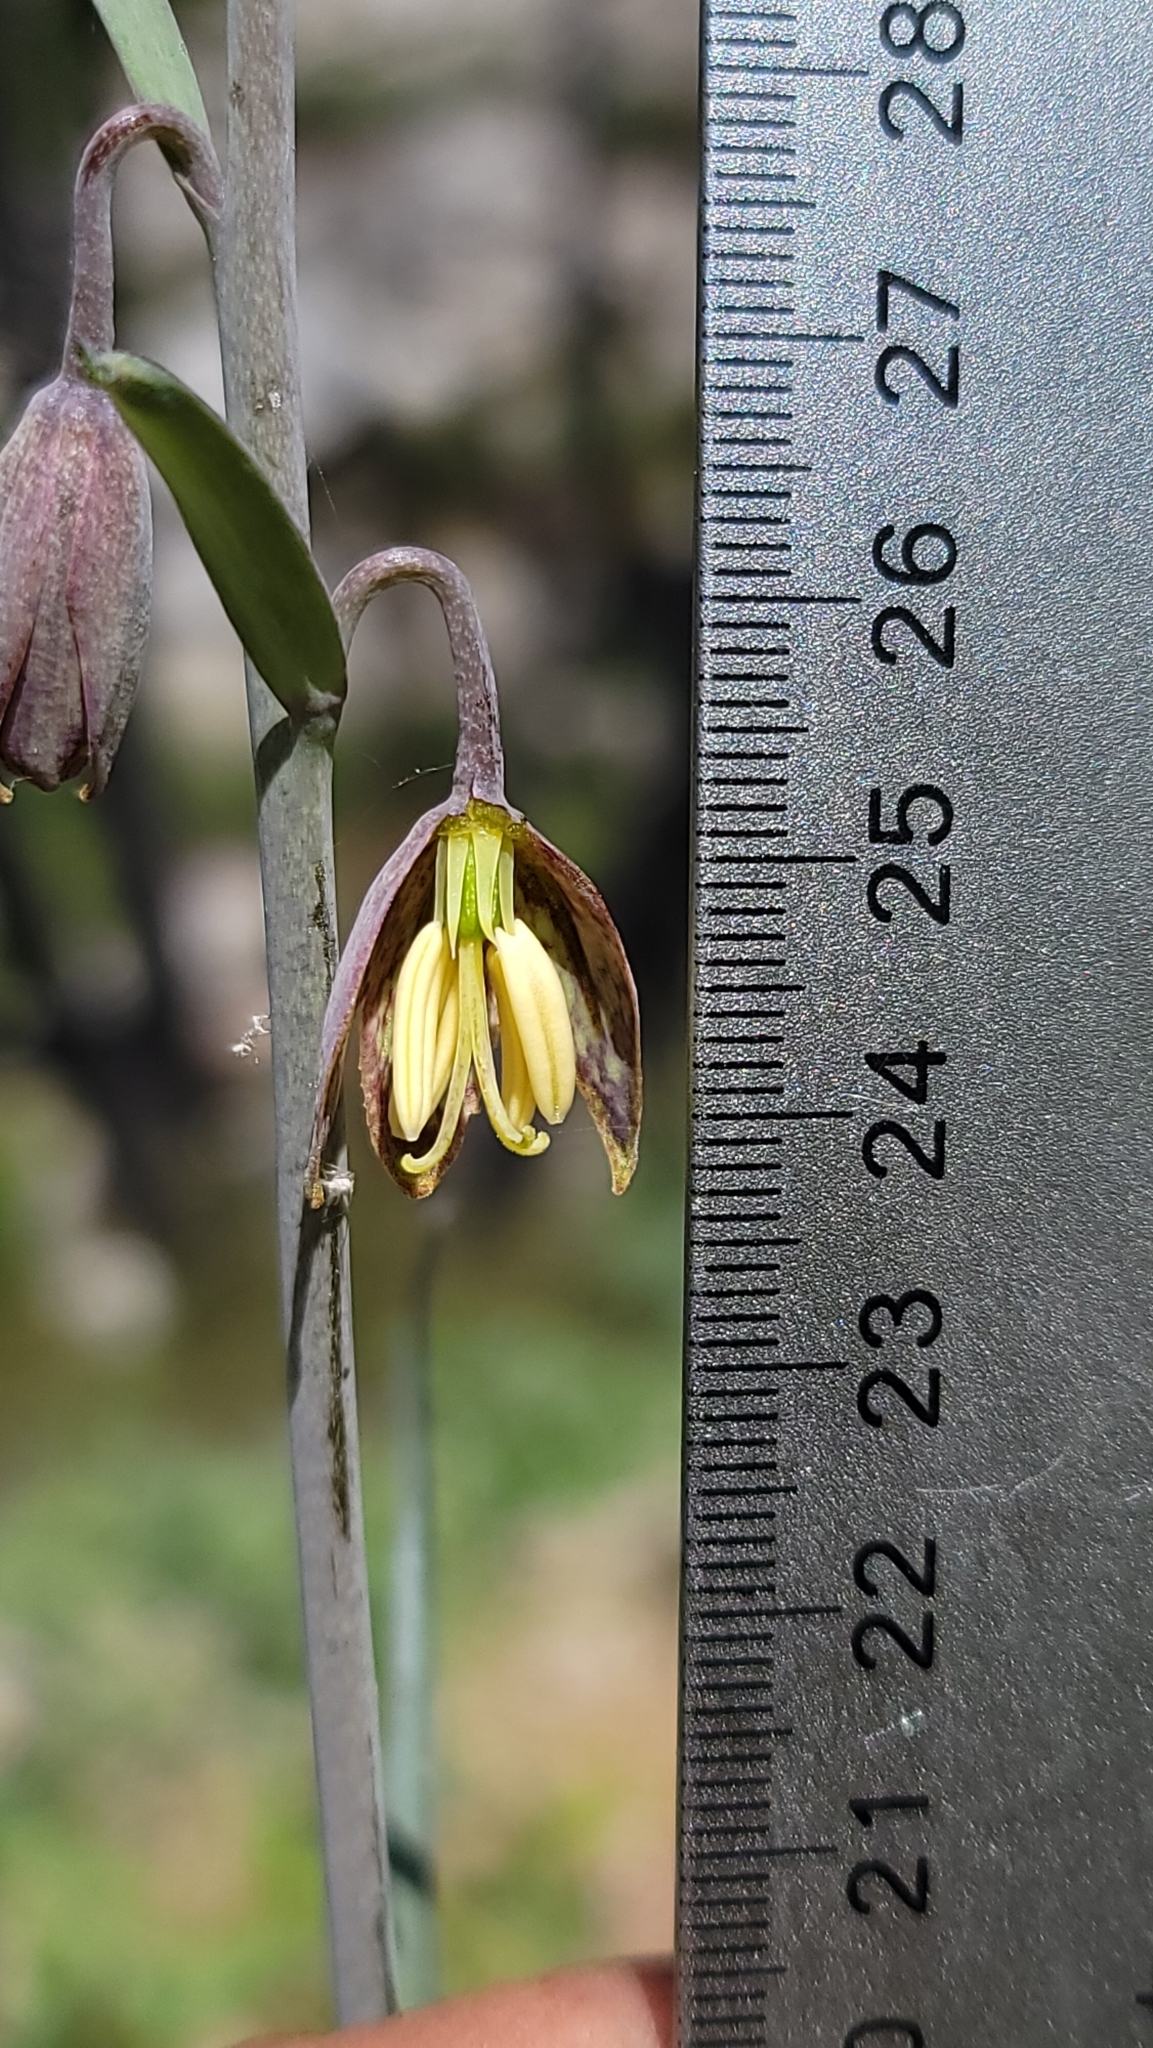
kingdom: Plantae
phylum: Tracheophyta
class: Liliopsida
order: Liliales
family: Liliaceae
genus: Fritillaria
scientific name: Fritillaria micrantha
